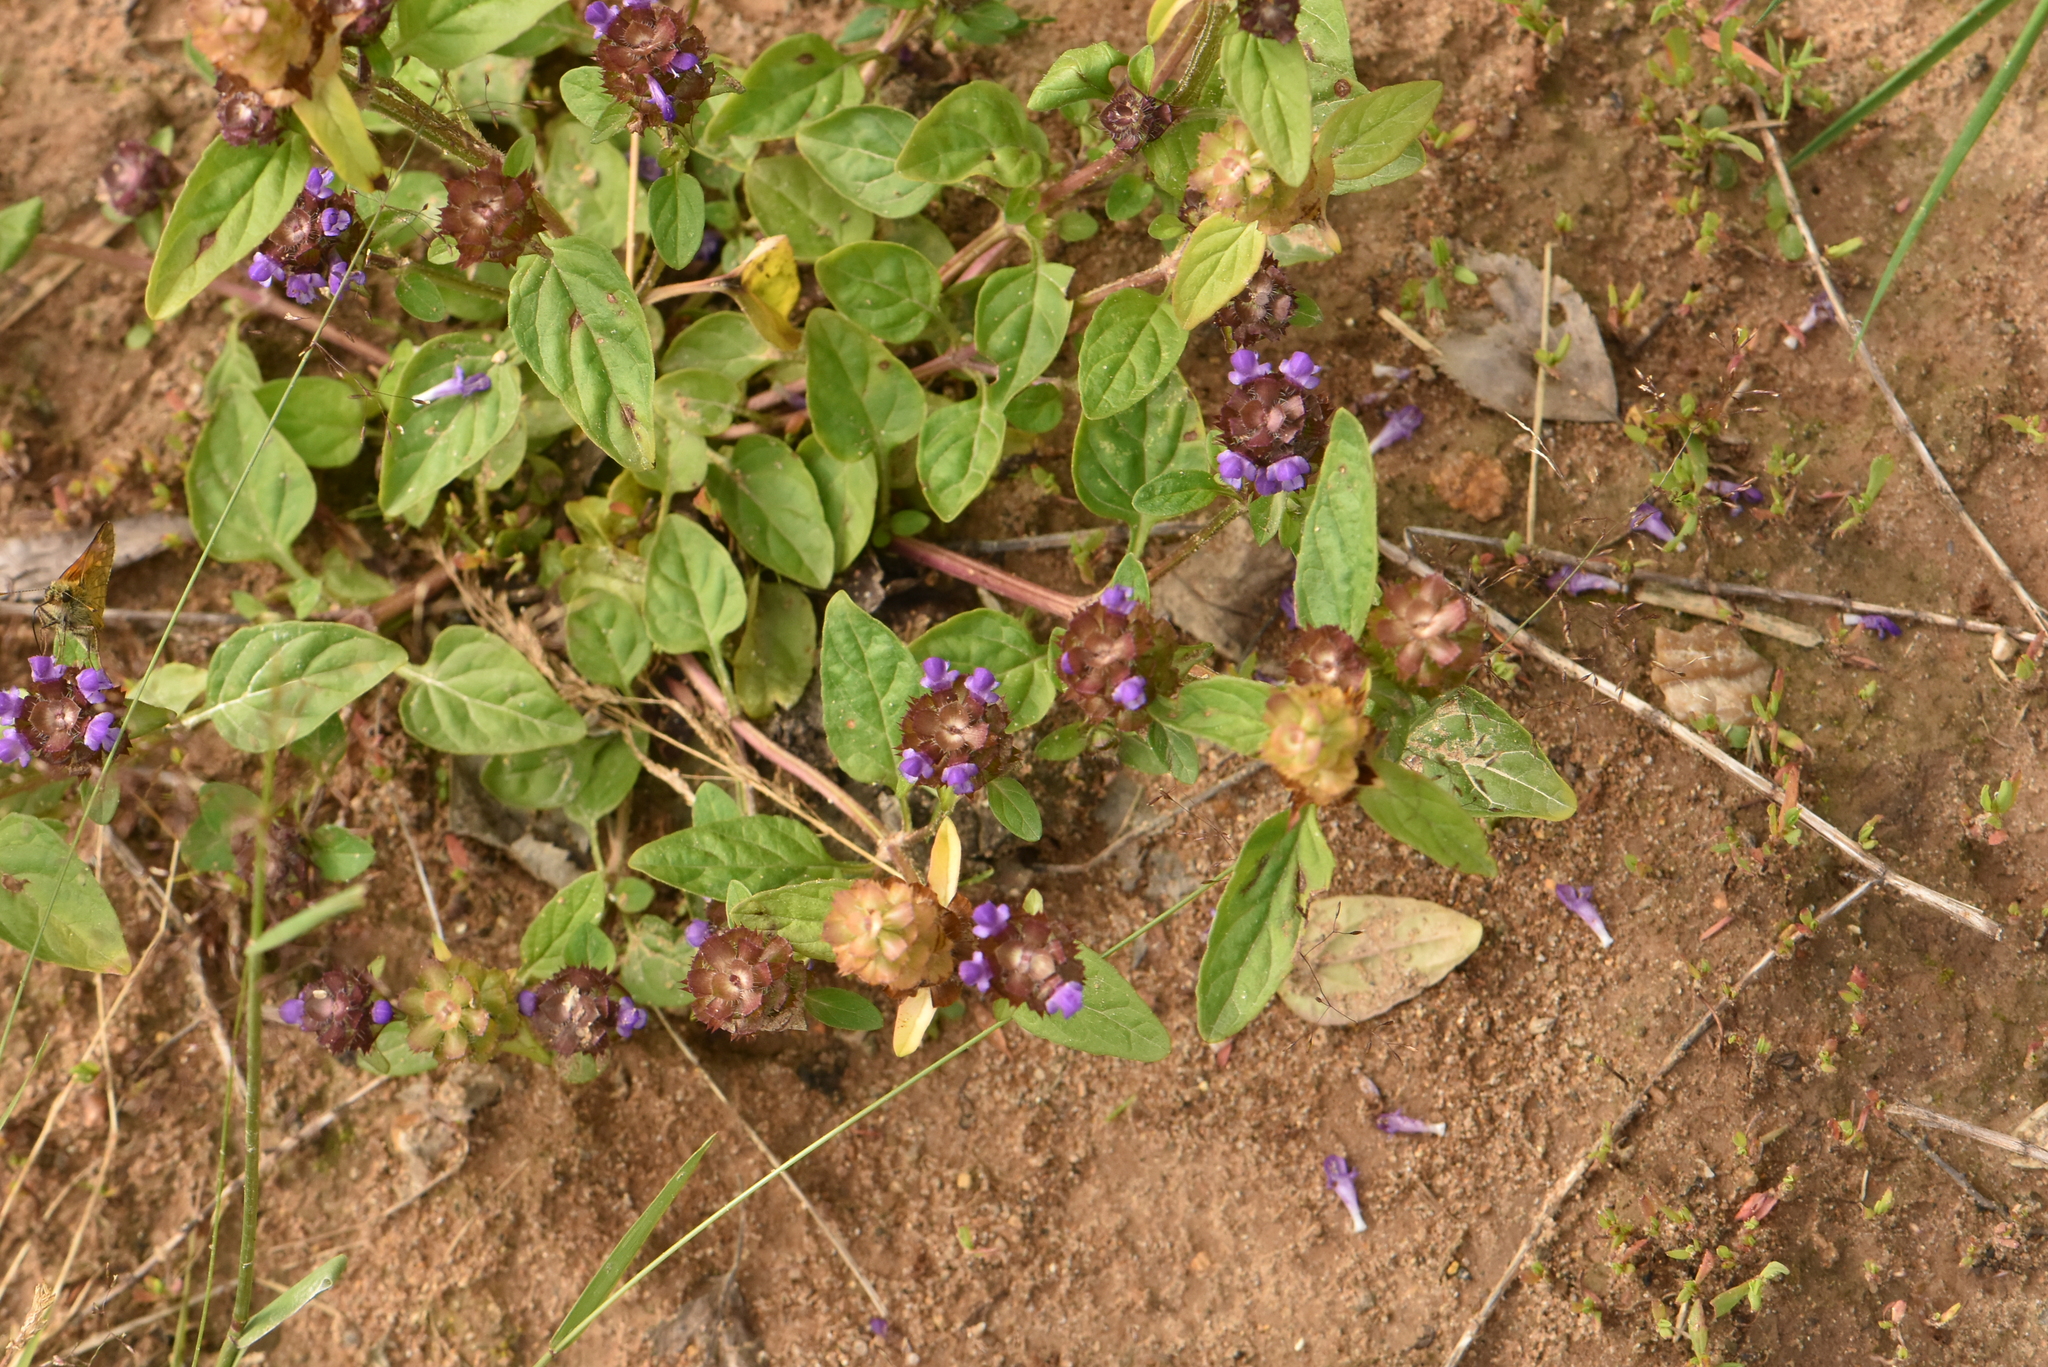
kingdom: Plantae
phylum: Tracheophyta
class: Magnoliopsida
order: Lamiales
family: Lamiaceae
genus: Prunella
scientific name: Prunella vulgaris
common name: Heal-all
